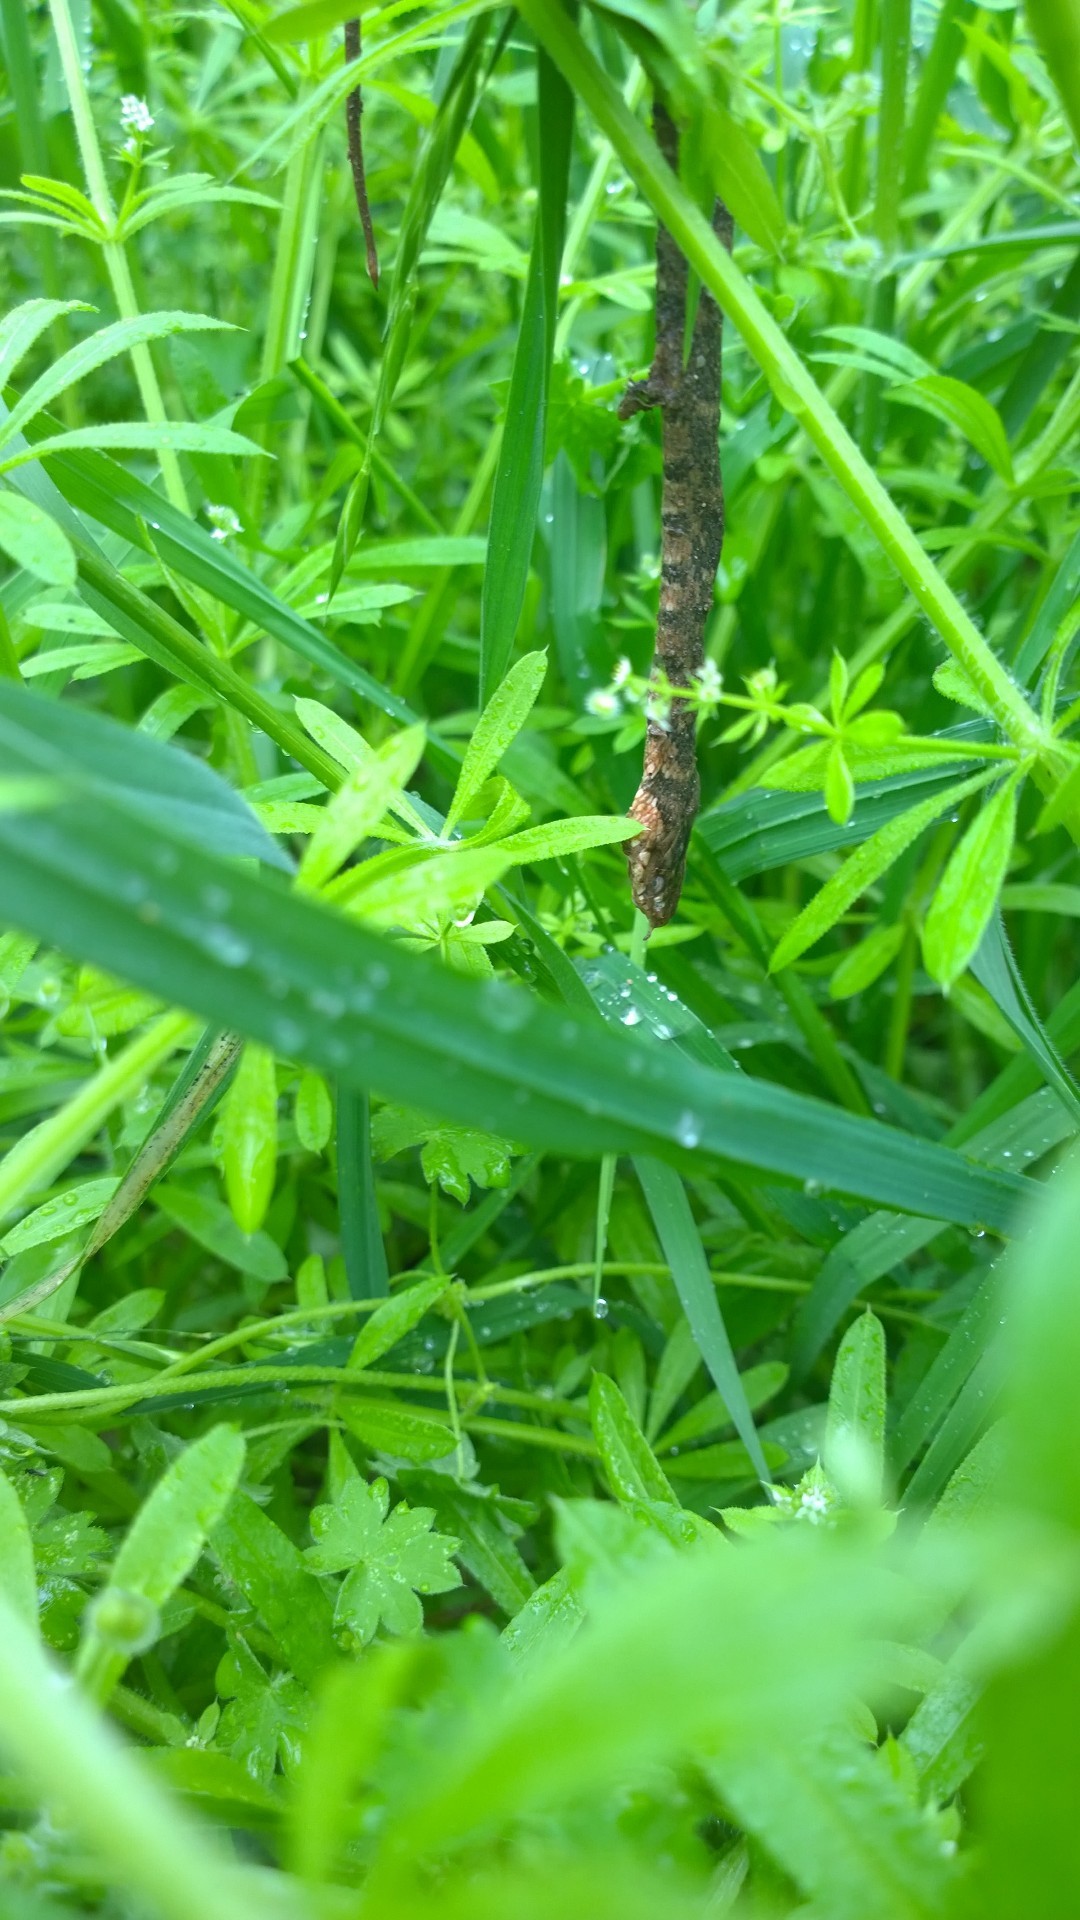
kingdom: Animalia
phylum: Chordata
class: Squamata
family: Colubridae
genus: Nerodia
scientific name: Nerodia erythrogaster
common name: Plainbelly water snake
